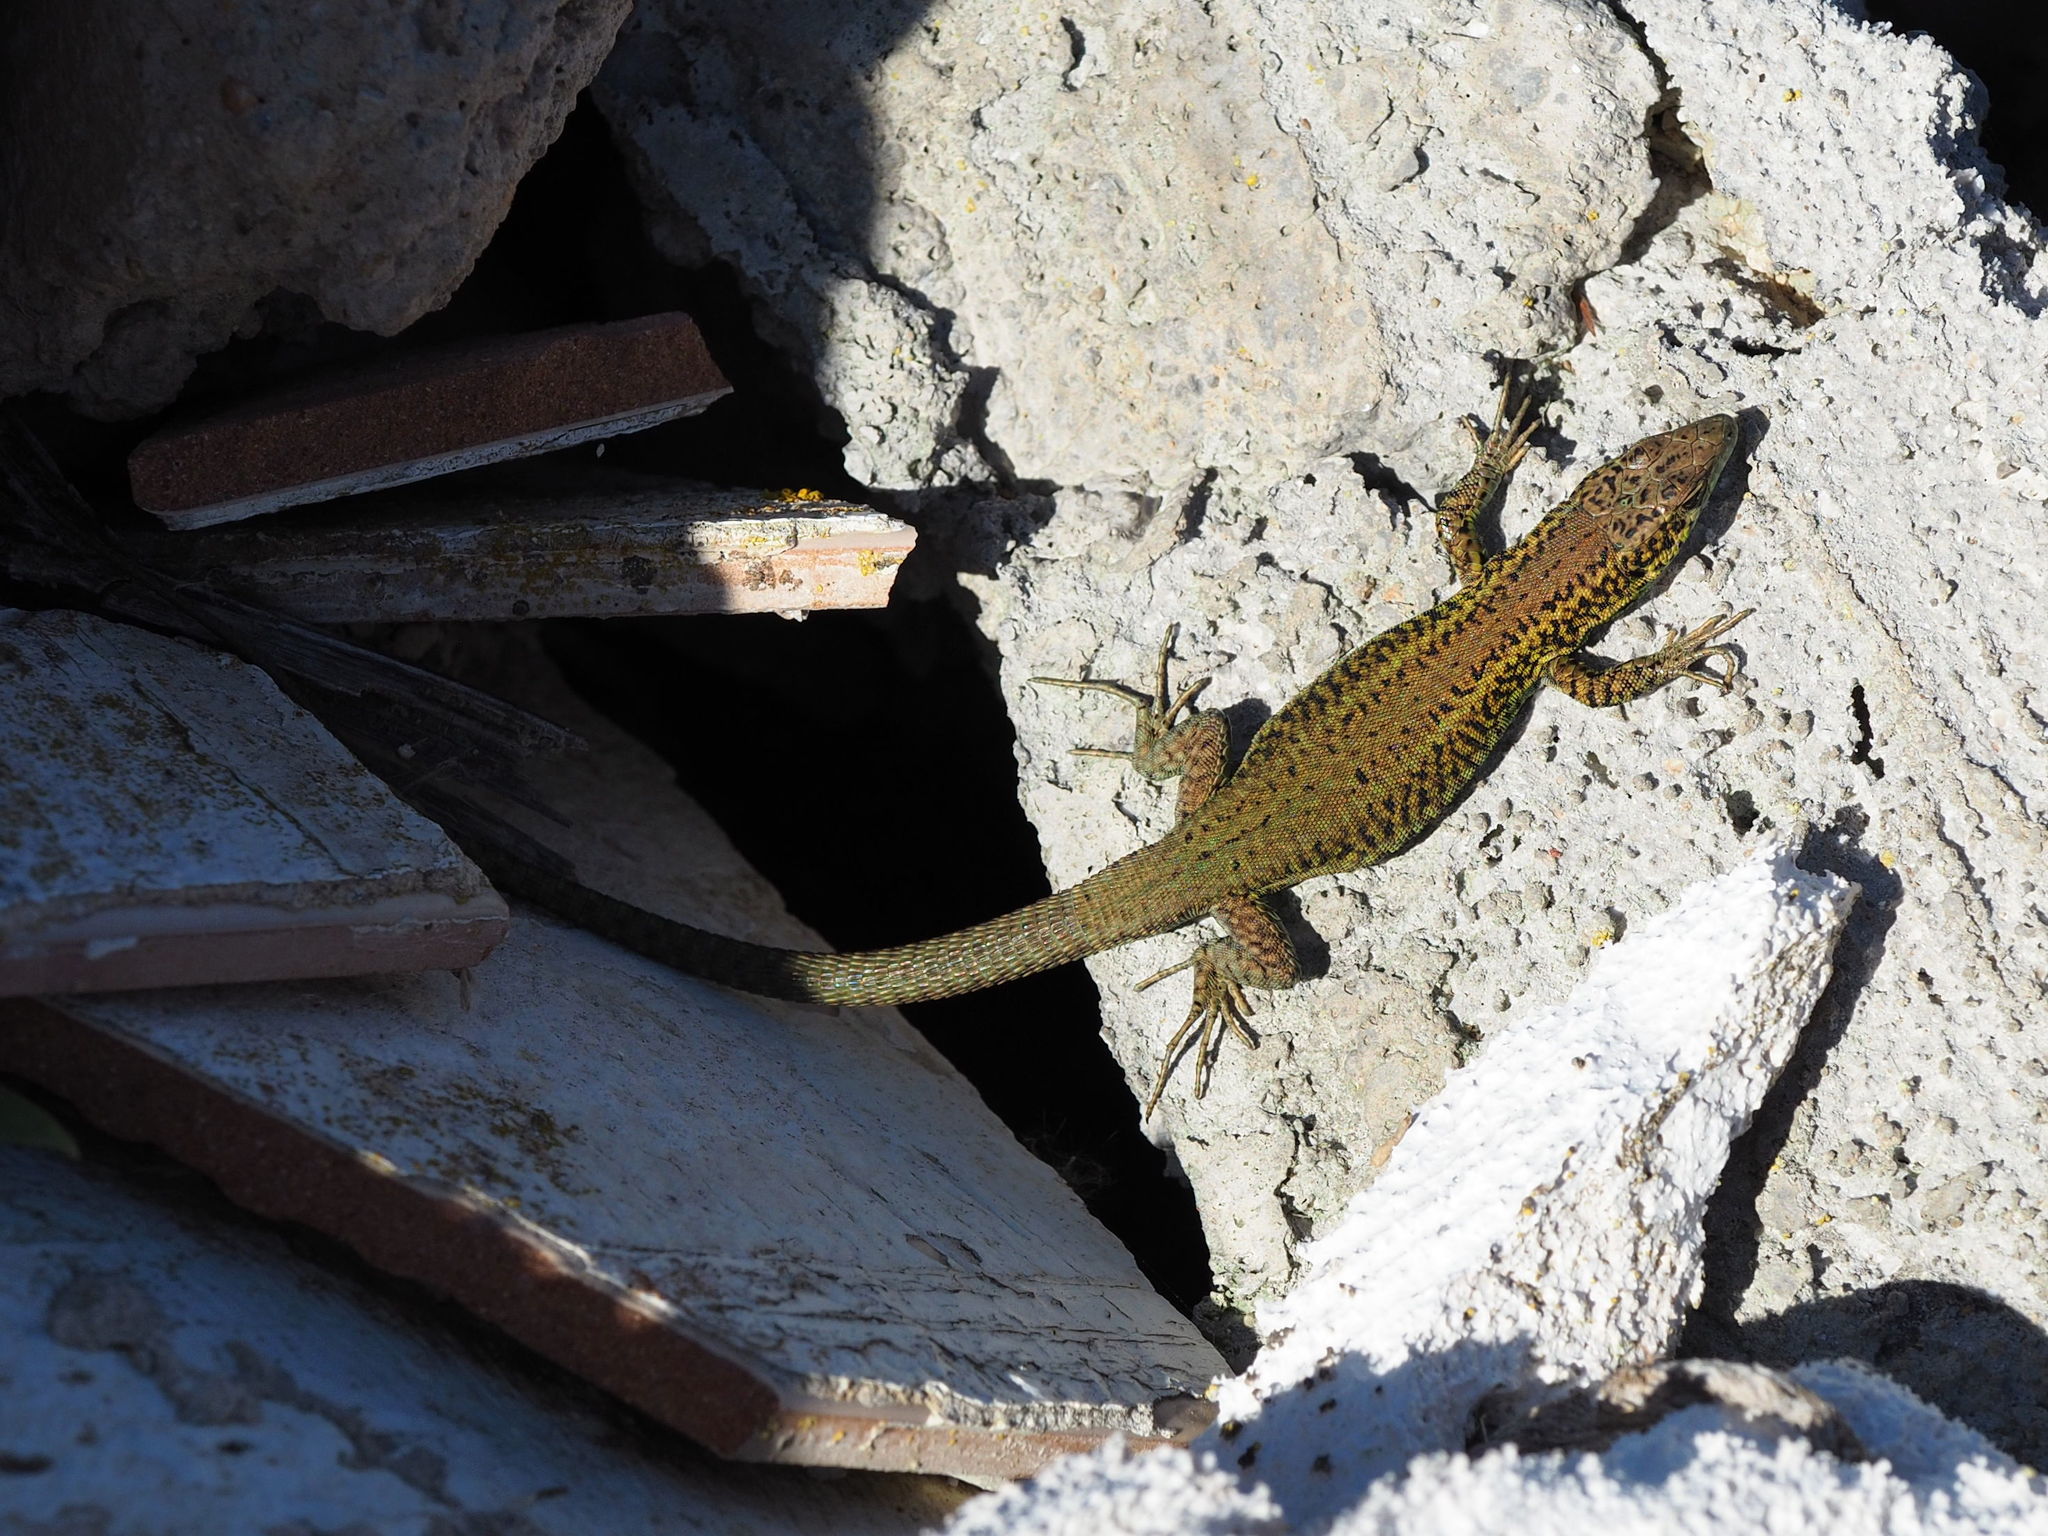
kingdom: Animalia
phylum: Chordata
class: Squamata
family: Lacertidae
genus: Podarcis
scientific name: Podarcis liolepis
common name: Catalonian wall lizard
